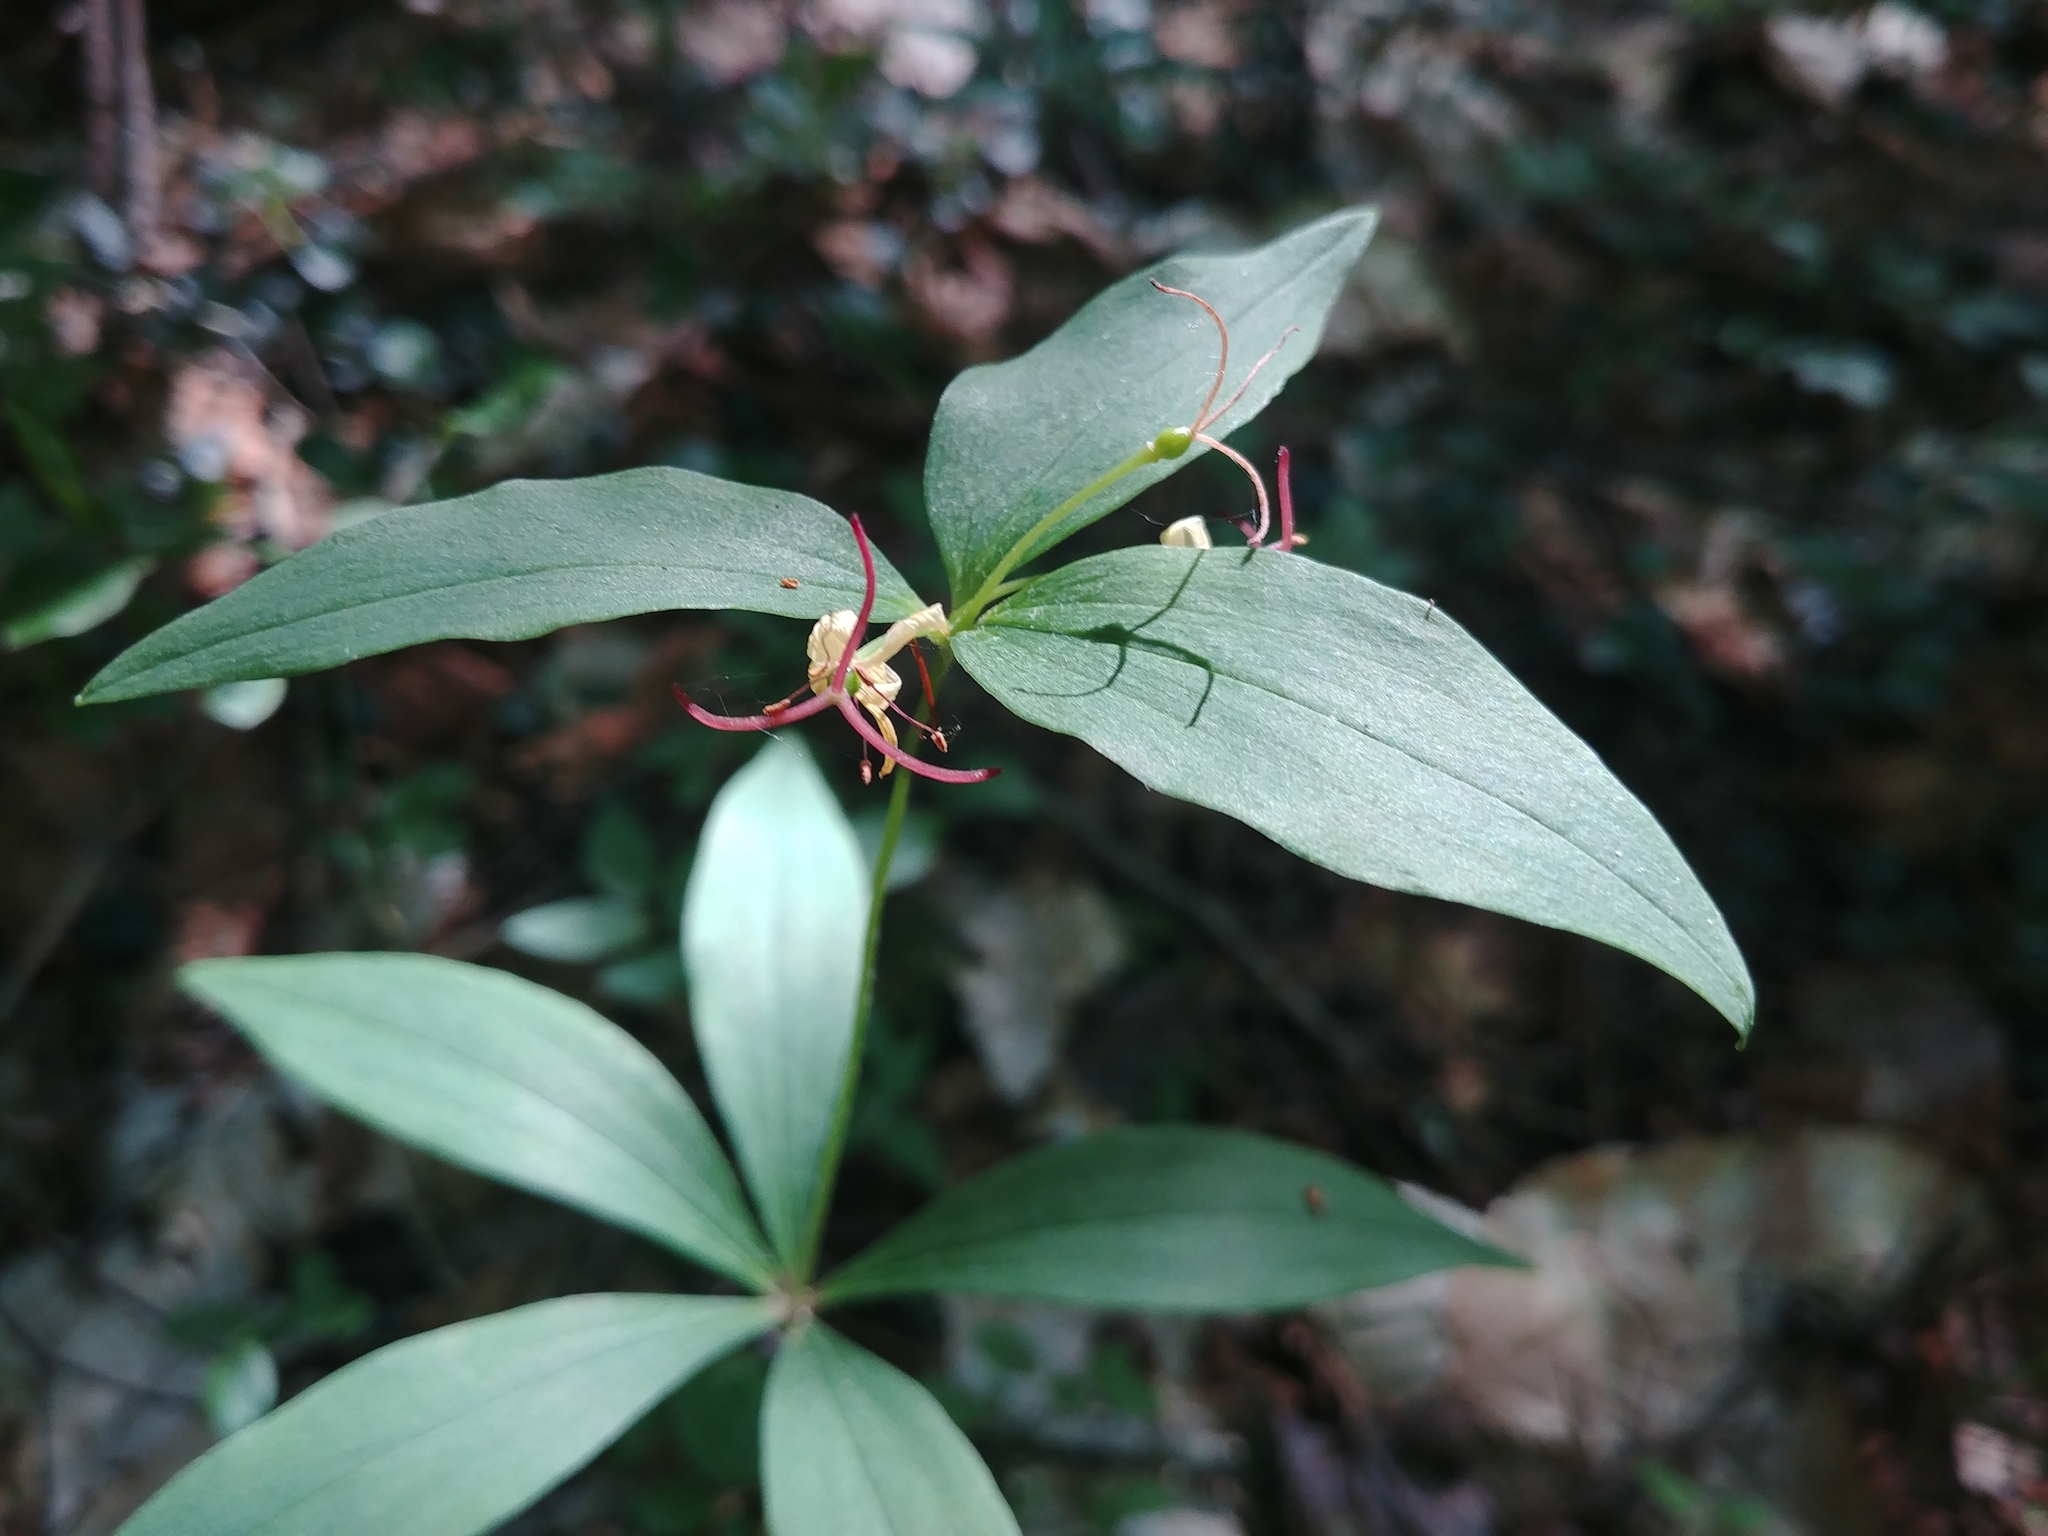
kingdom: Plantae
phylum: Tracheophyta
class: Liliopsida
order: Liliales
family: Liliaceae
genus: Medeola
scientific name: Medeola virginiana
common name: Indian cucumber-root
